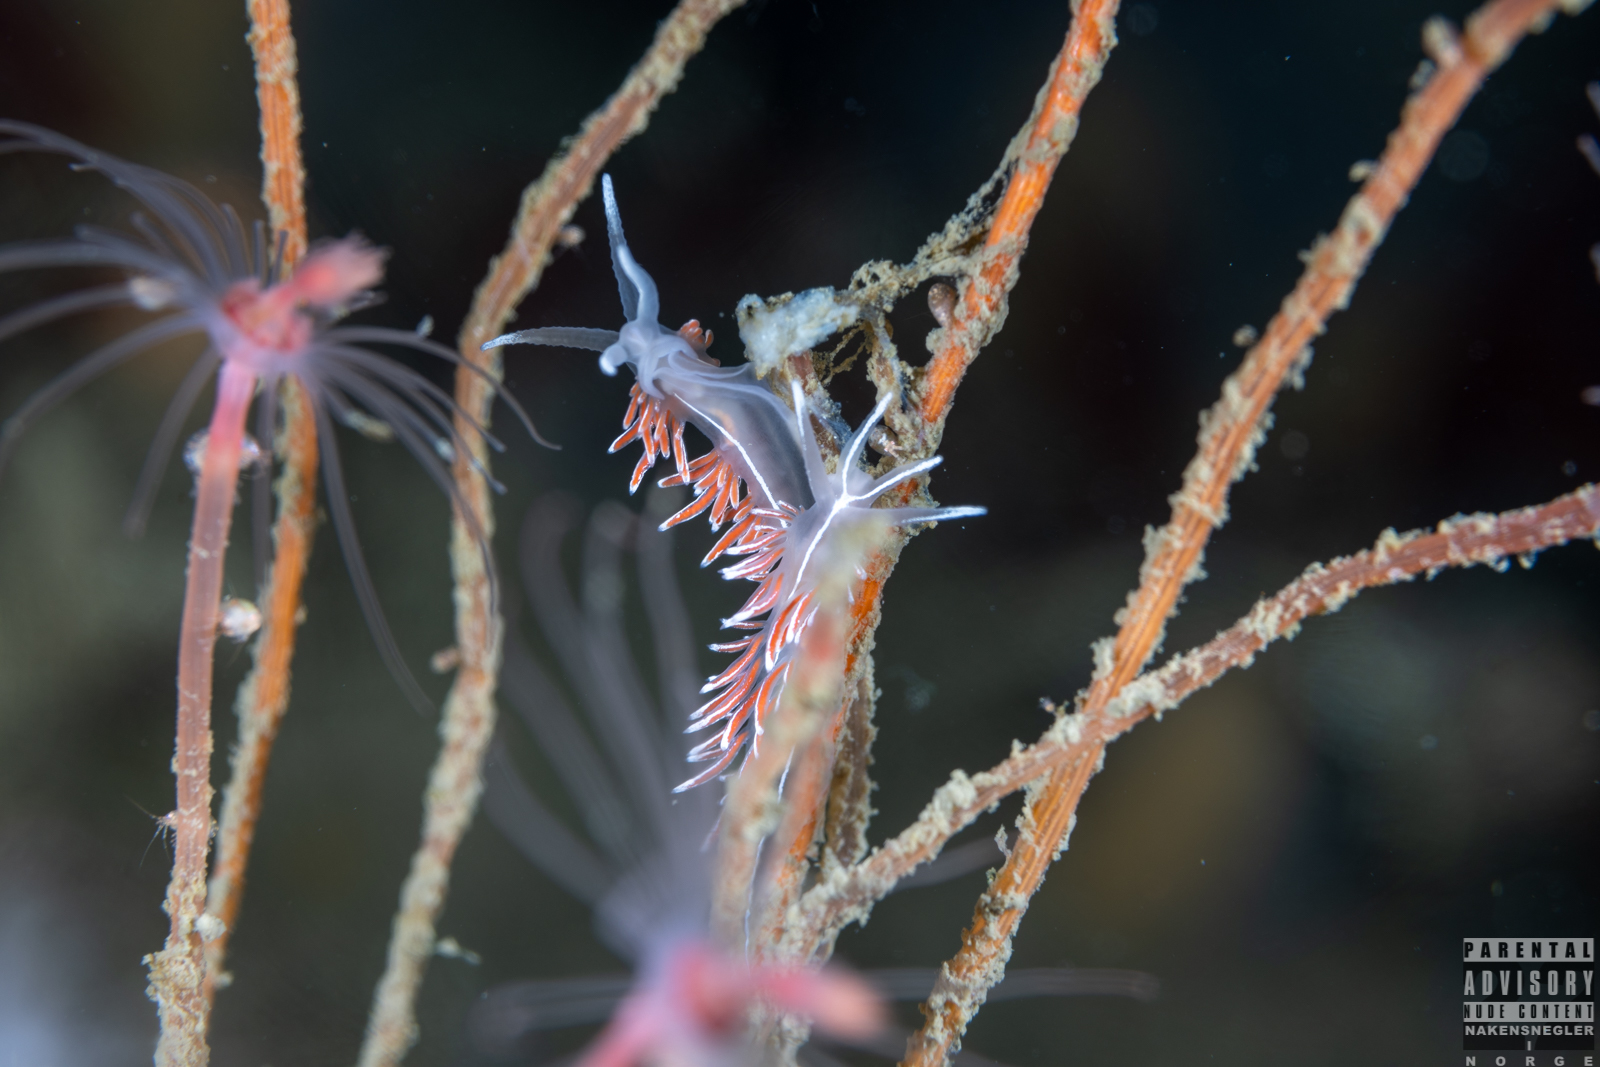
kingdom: Animalia
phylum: Mollusca
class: Gastropoda
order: Nudibranchia
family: Coryphellidae
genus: Coryphella
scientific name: Coryphella lineata
